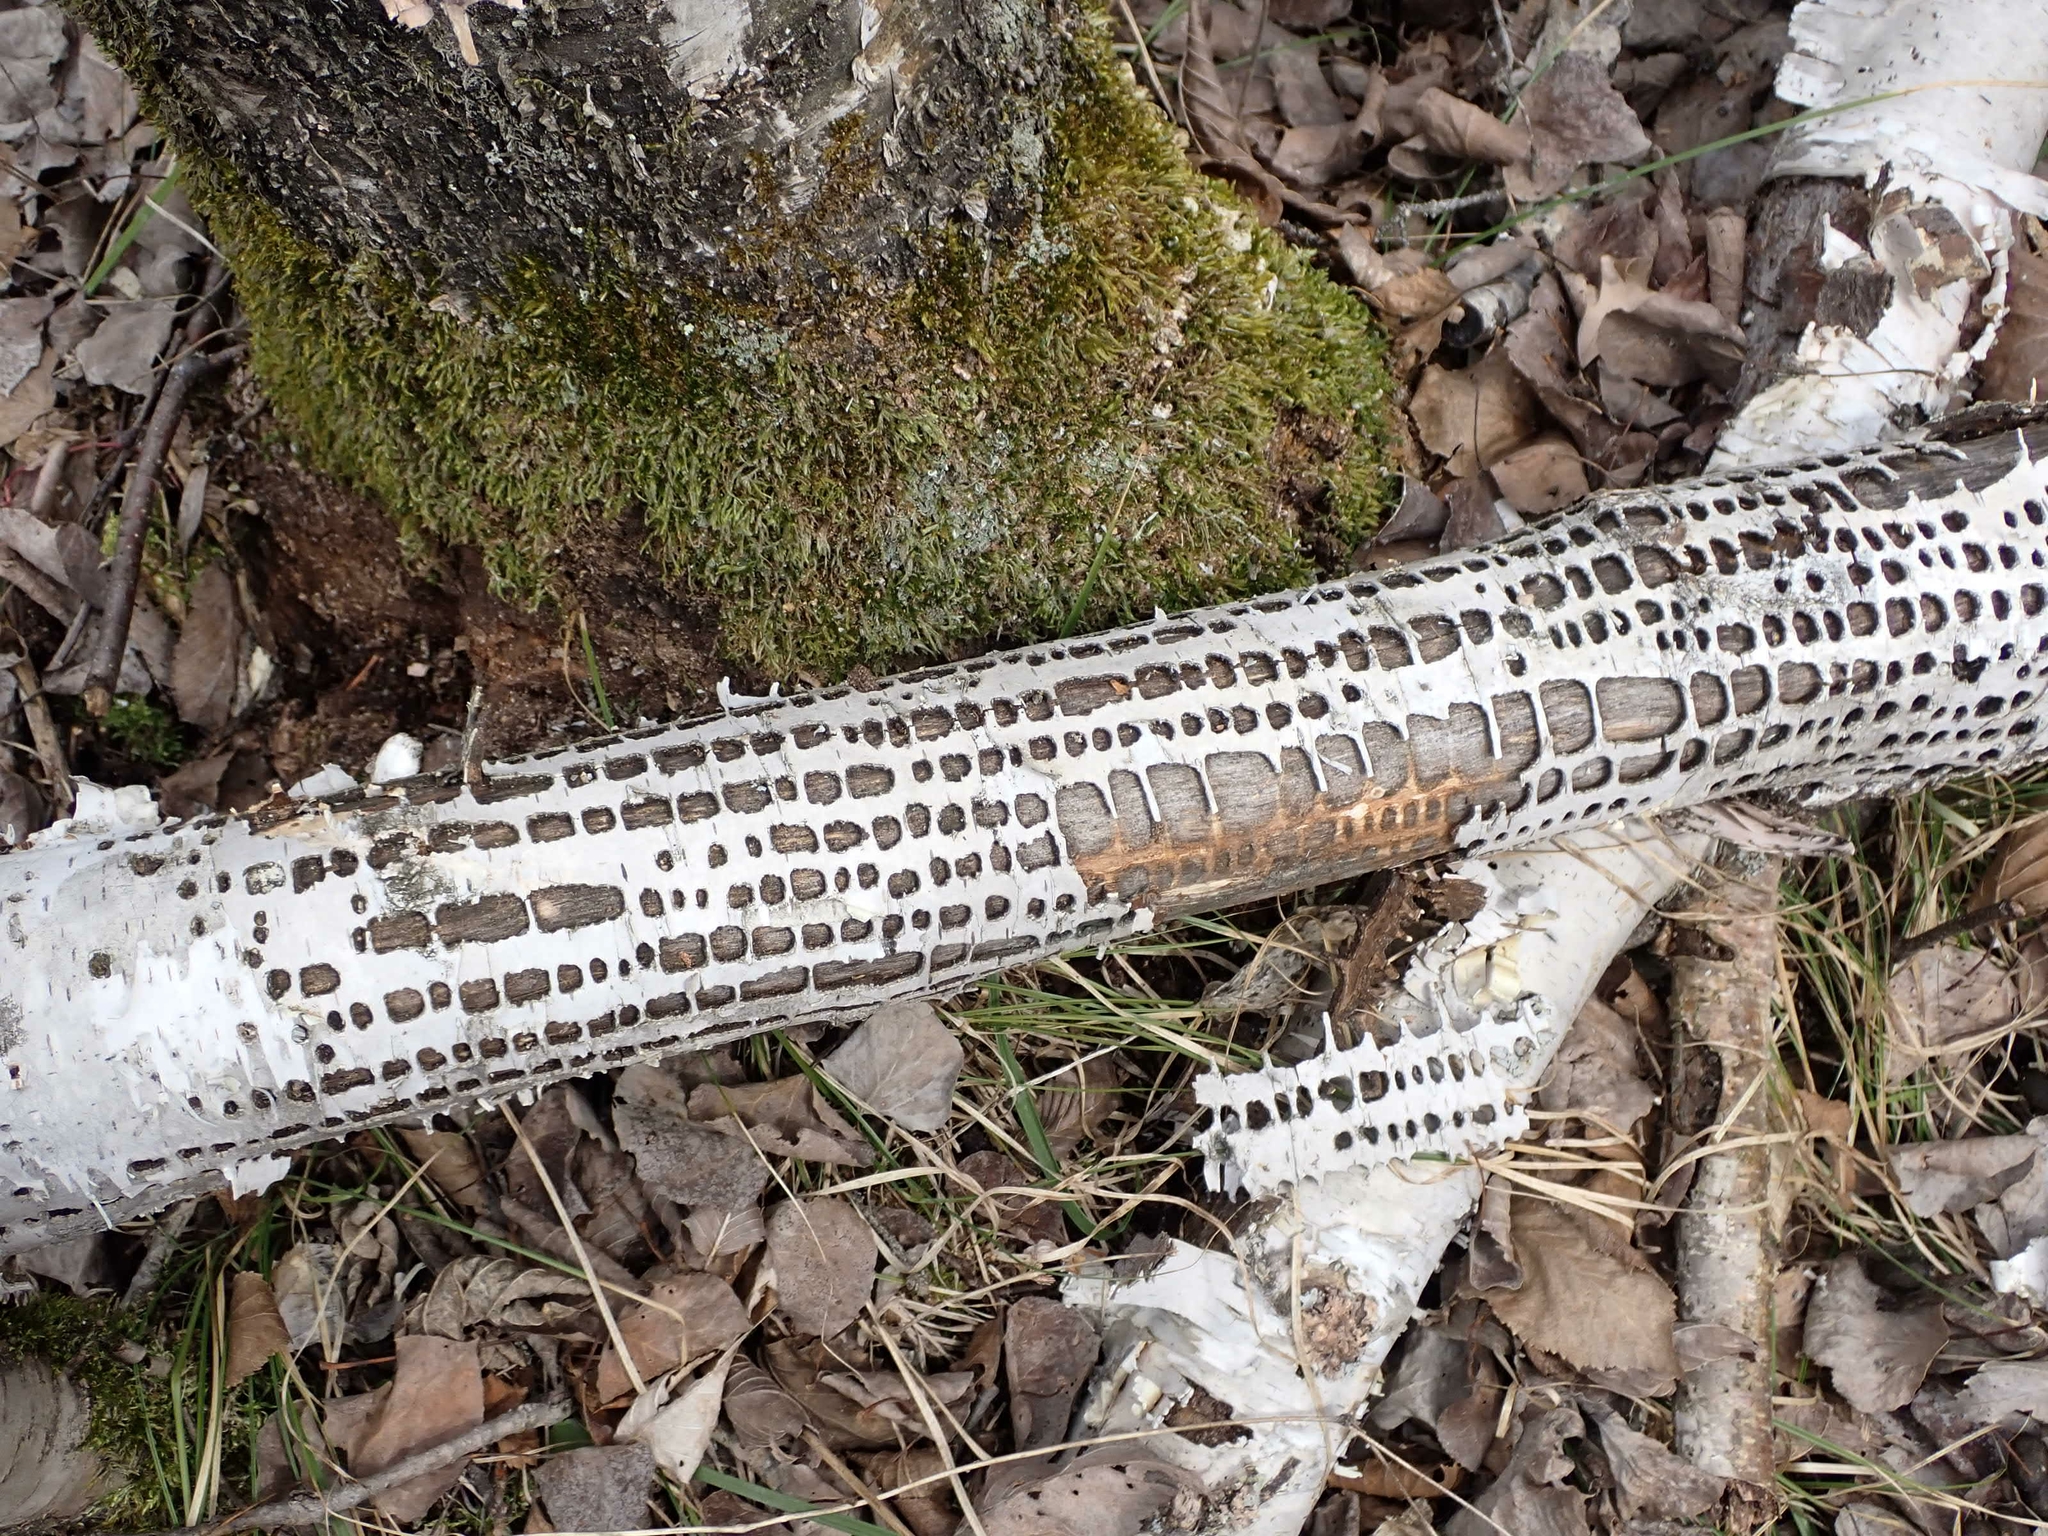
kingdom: Animalia
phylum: Chordata
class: Aves
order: Piciformes
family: Picidae
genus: Sphyrapicus
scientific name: Sphyrapicus varius
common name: Yellow-bellied sapsucker
